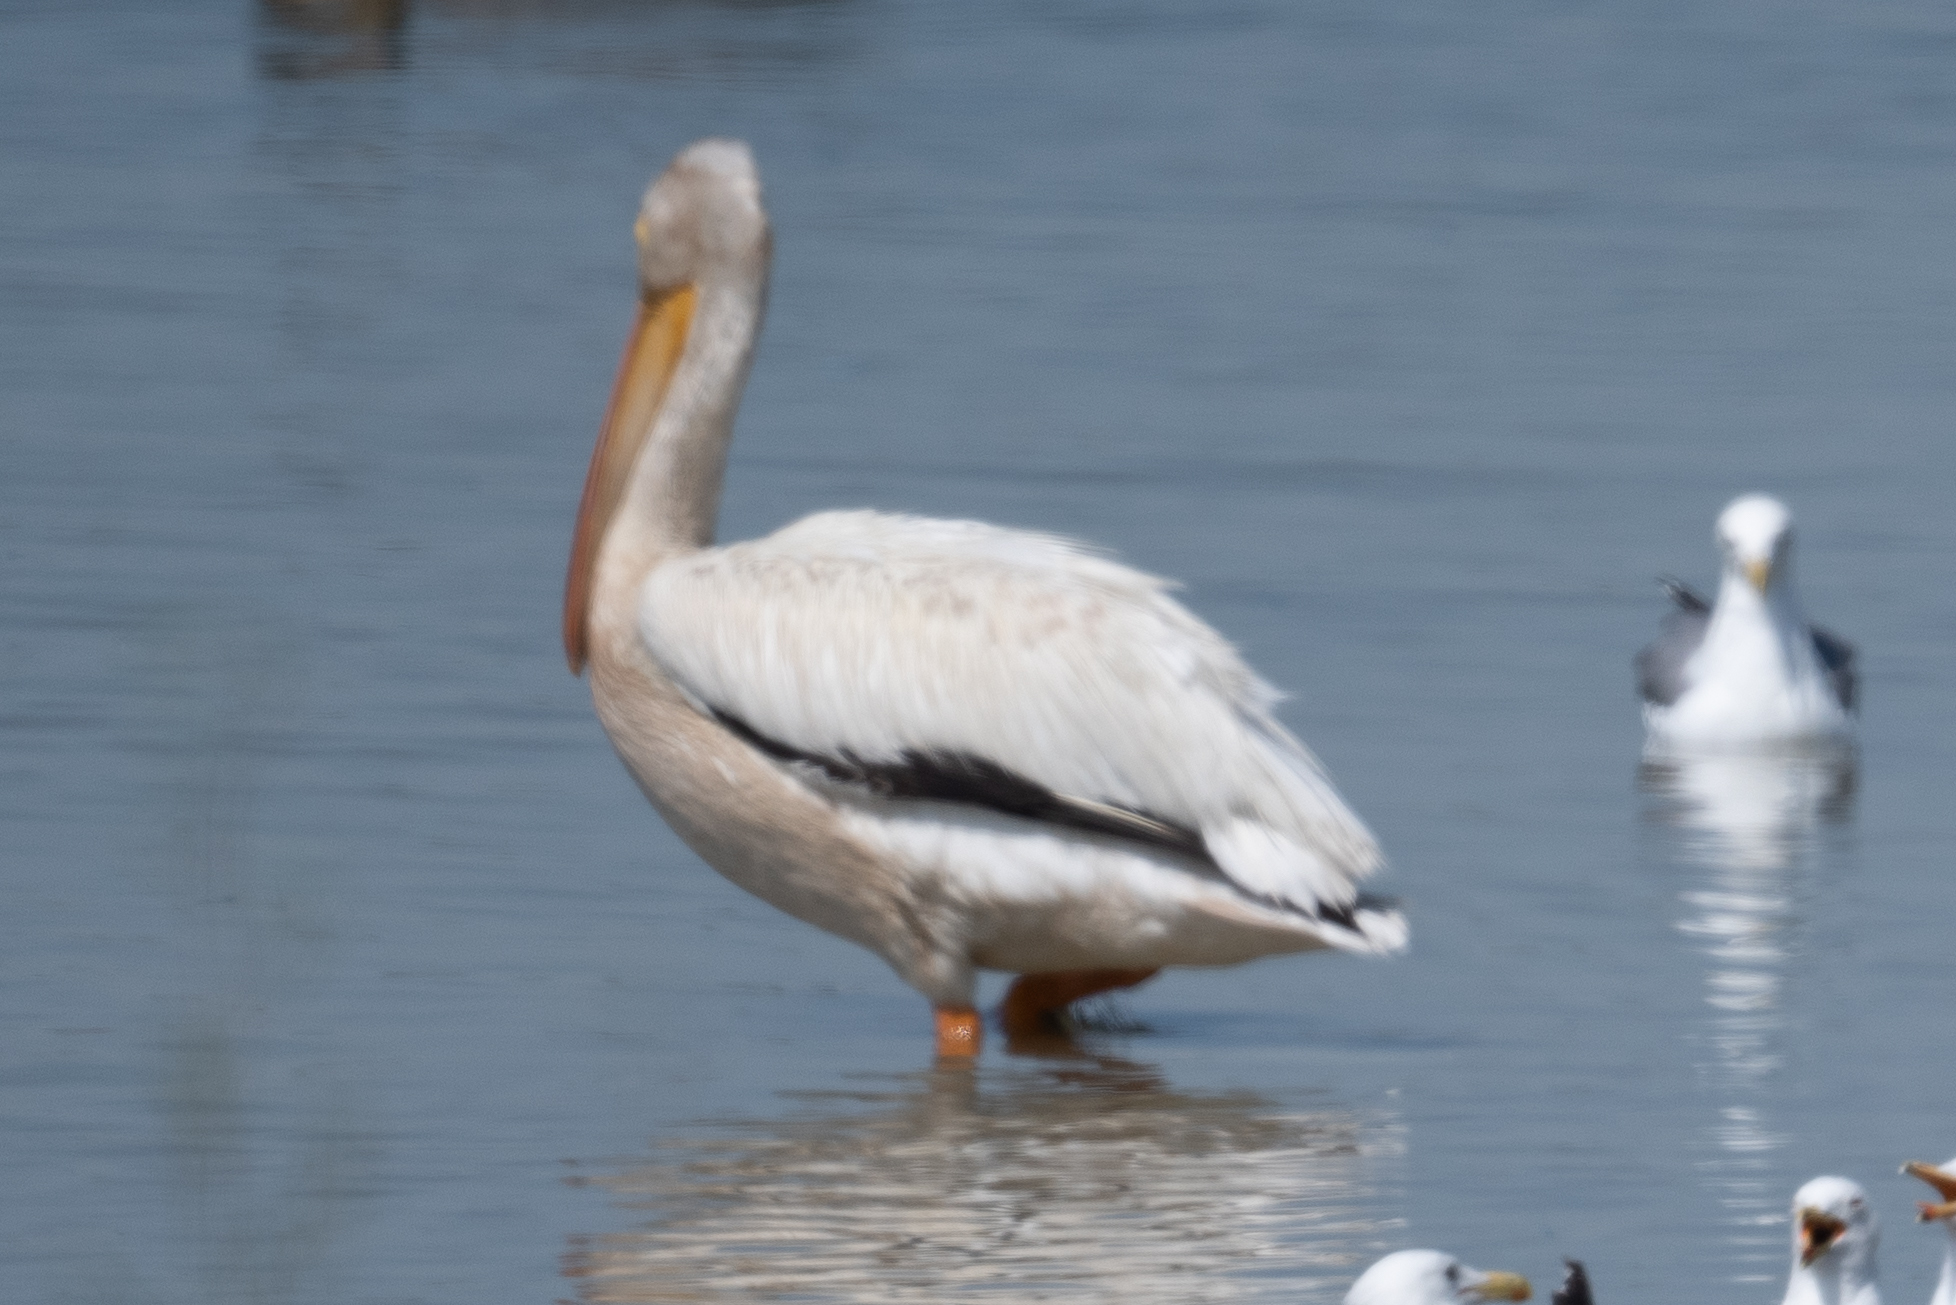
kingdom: Animalia
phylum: Chordata
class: Aves
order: Pelecaniformes
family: Pelecanidae
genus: Pelecanus
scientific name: Pelecanus erythrorhynchos
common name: American white pelican
